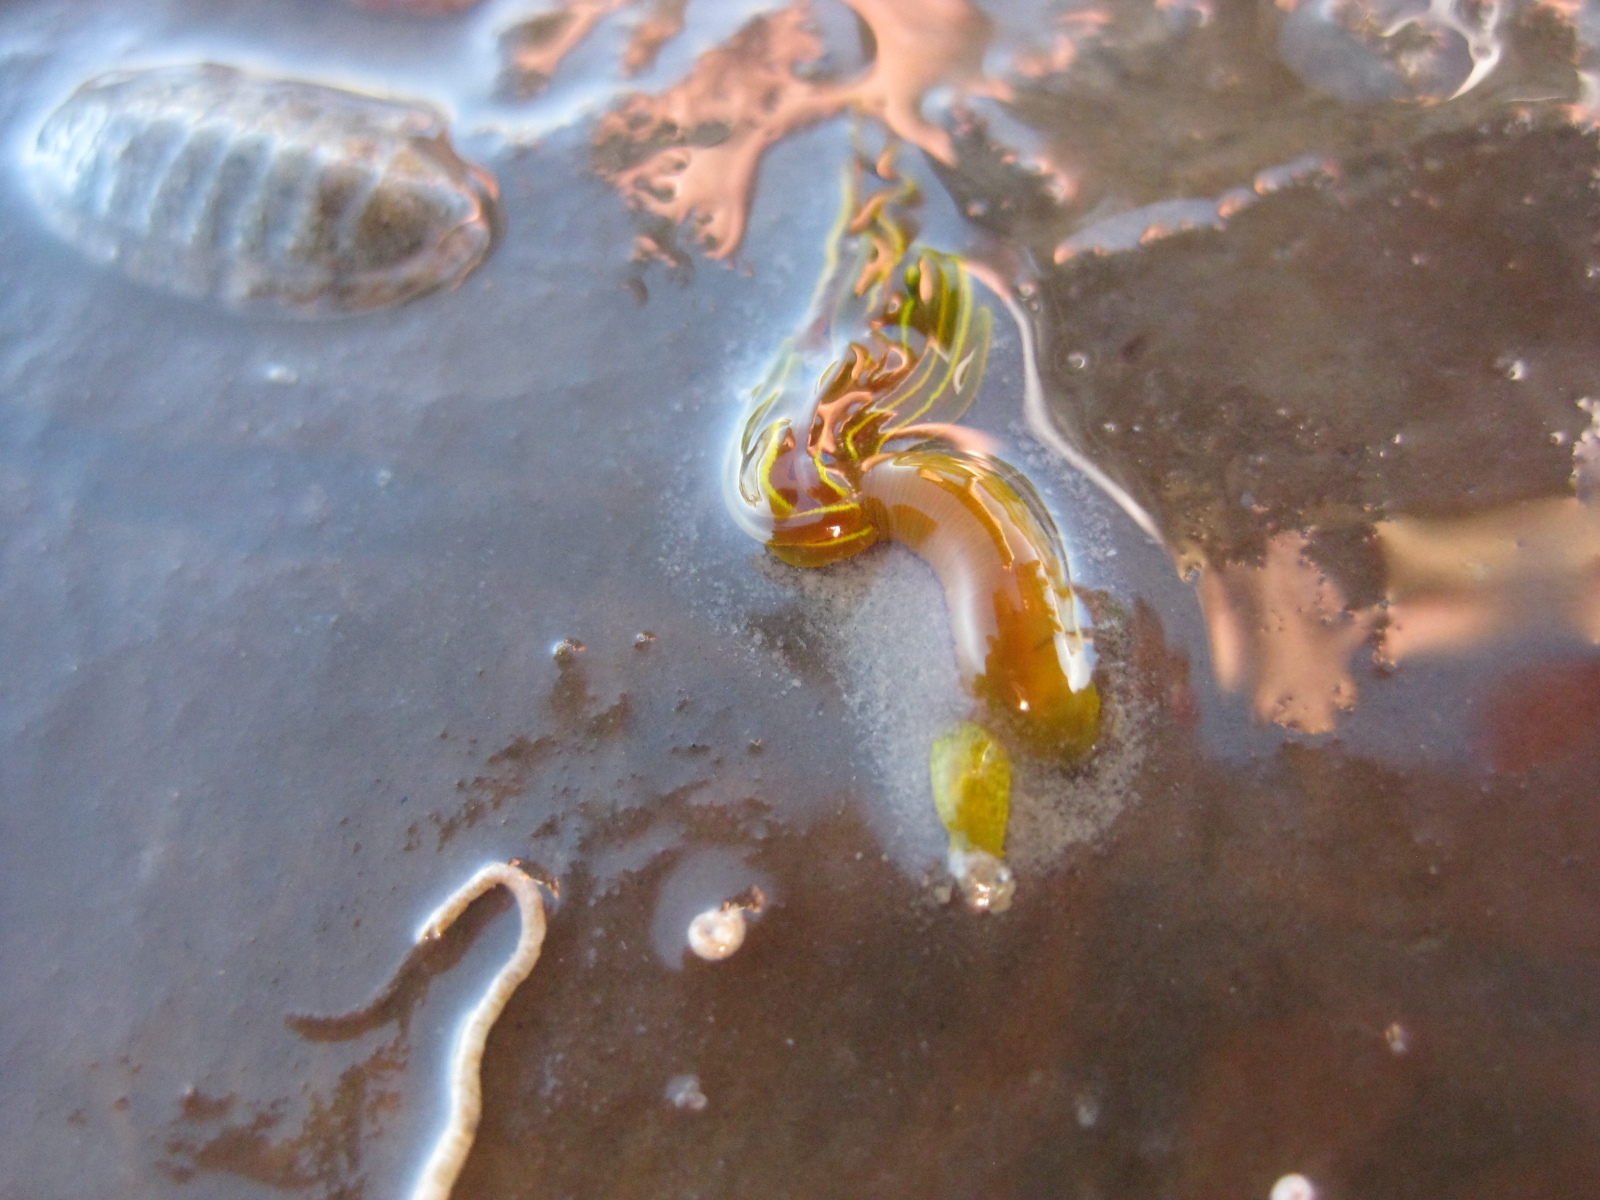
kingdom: Animalia
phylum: Annelida
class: Polychaeta
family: Acrocirridae
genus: Acrocirrus
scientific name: Acrocirrus trisectus
